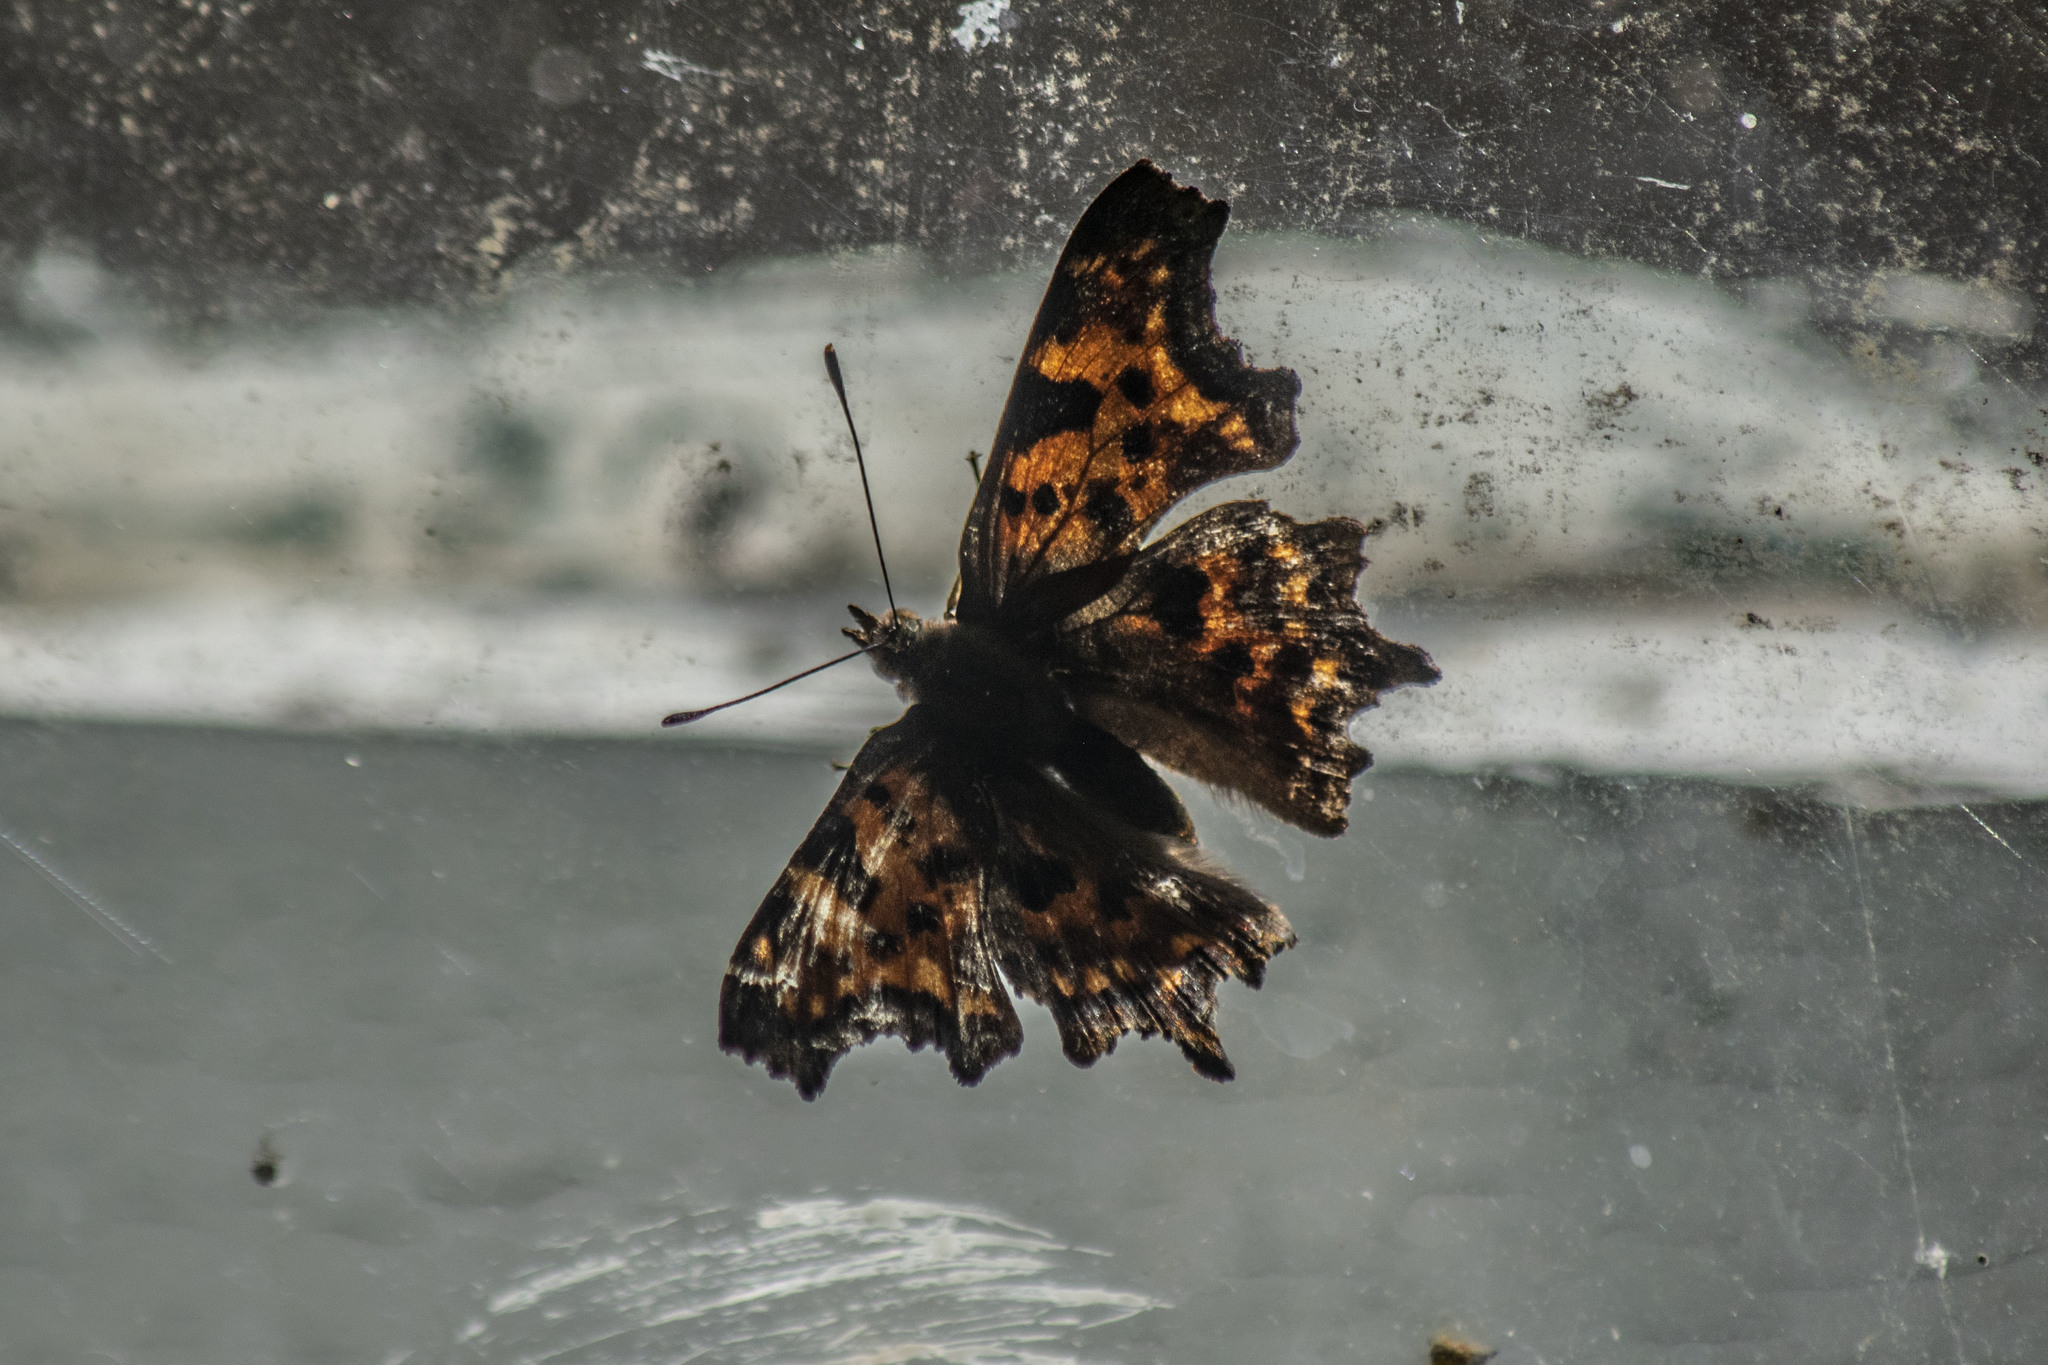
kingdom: Animalia
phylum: Arthropoda
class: Insecta
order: Lepidoptera
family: Nymphalidae
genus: Polygonia
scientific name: Polygonia c-album
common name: Comma
